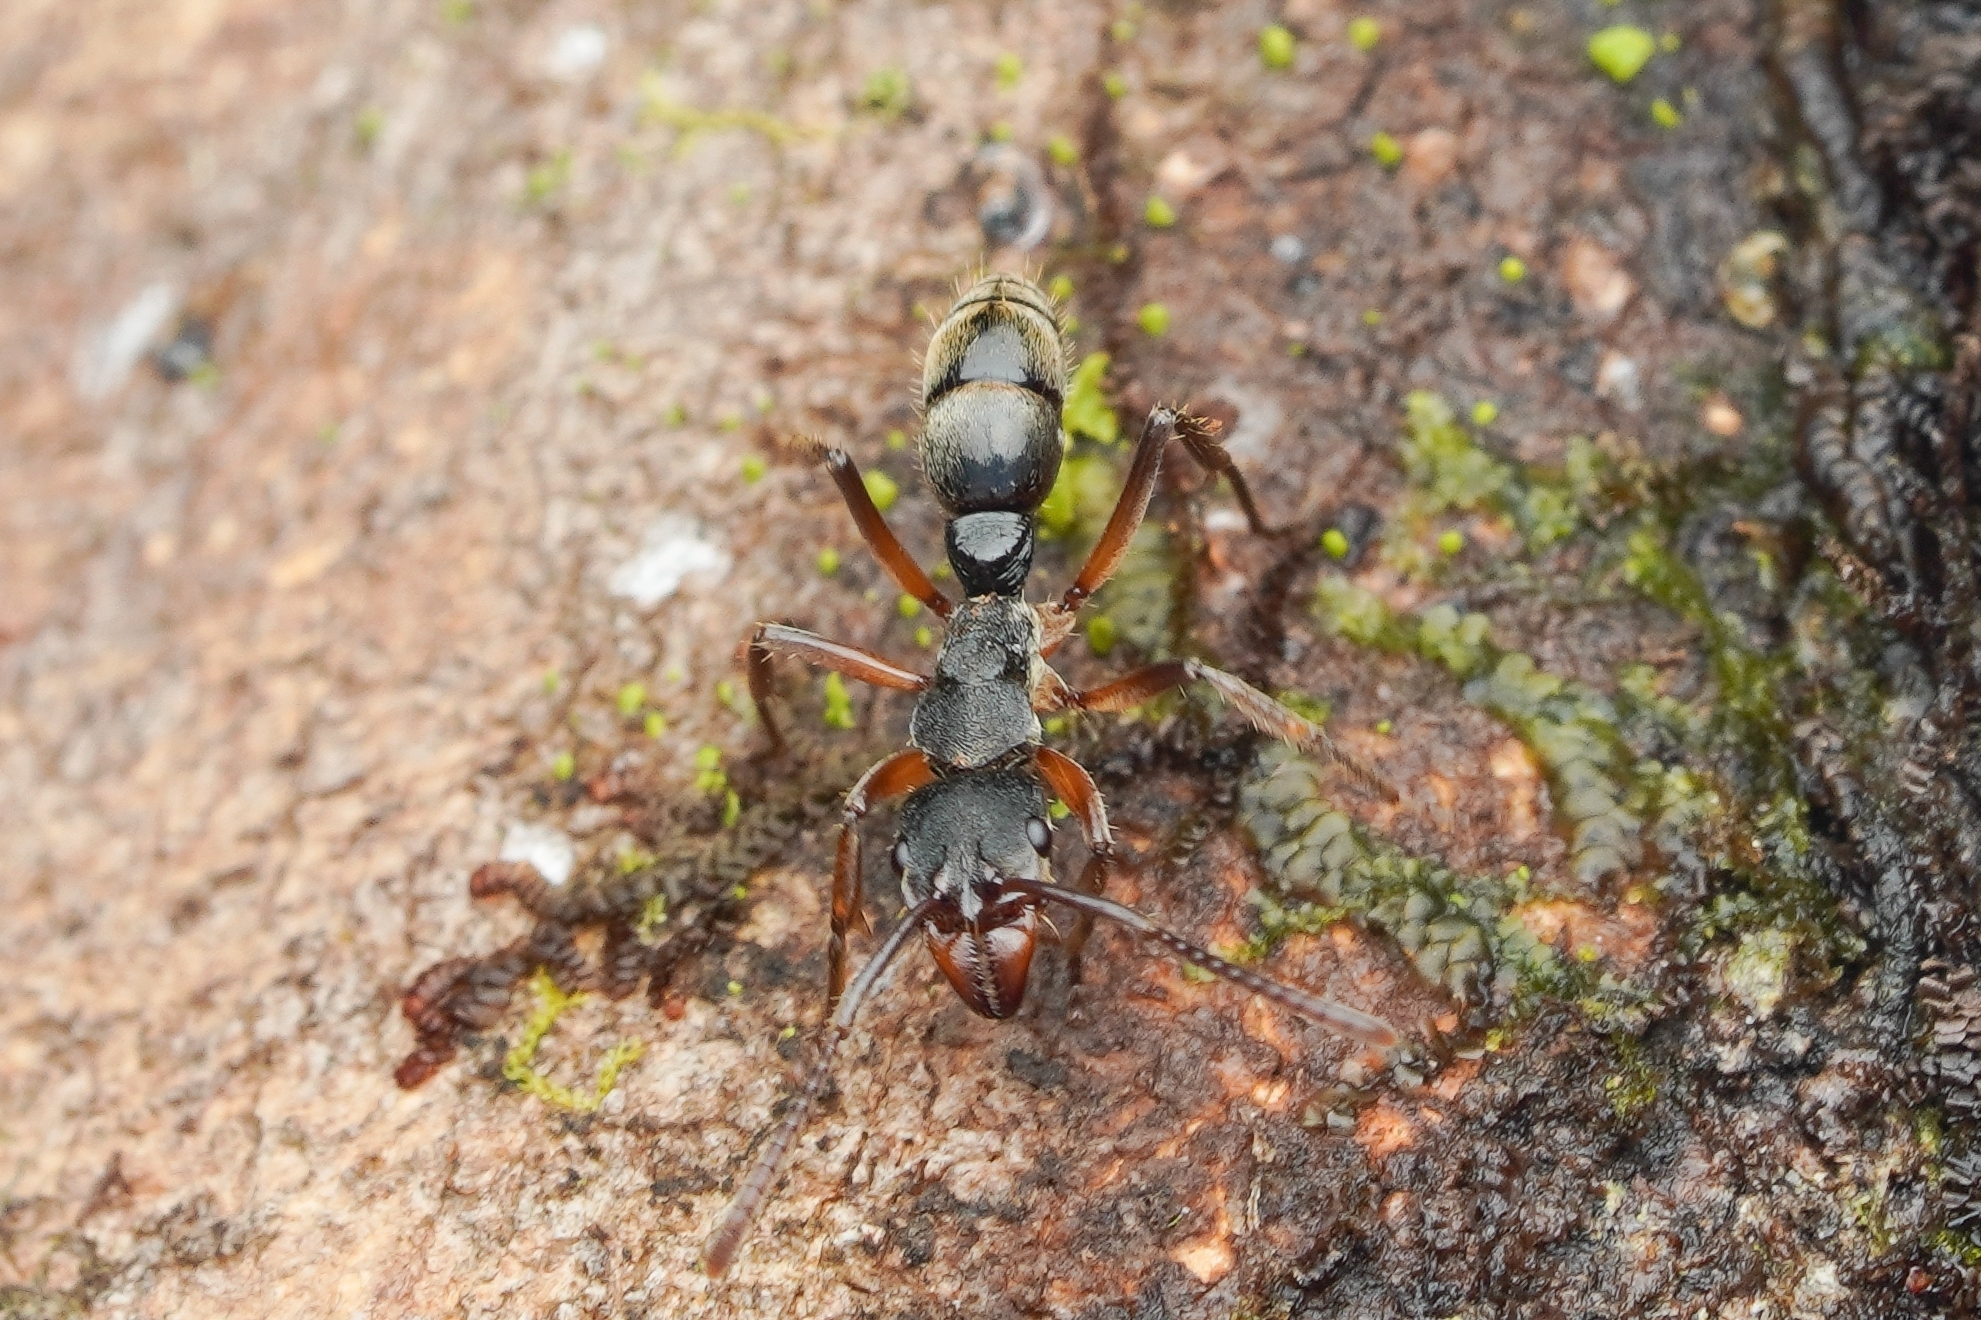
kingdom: Animalia
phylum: Arthropoda
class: Insecta
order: Hymenoptera
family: Formicidae
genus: Pachycondyla
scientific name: Pachycondyla striatinodis
